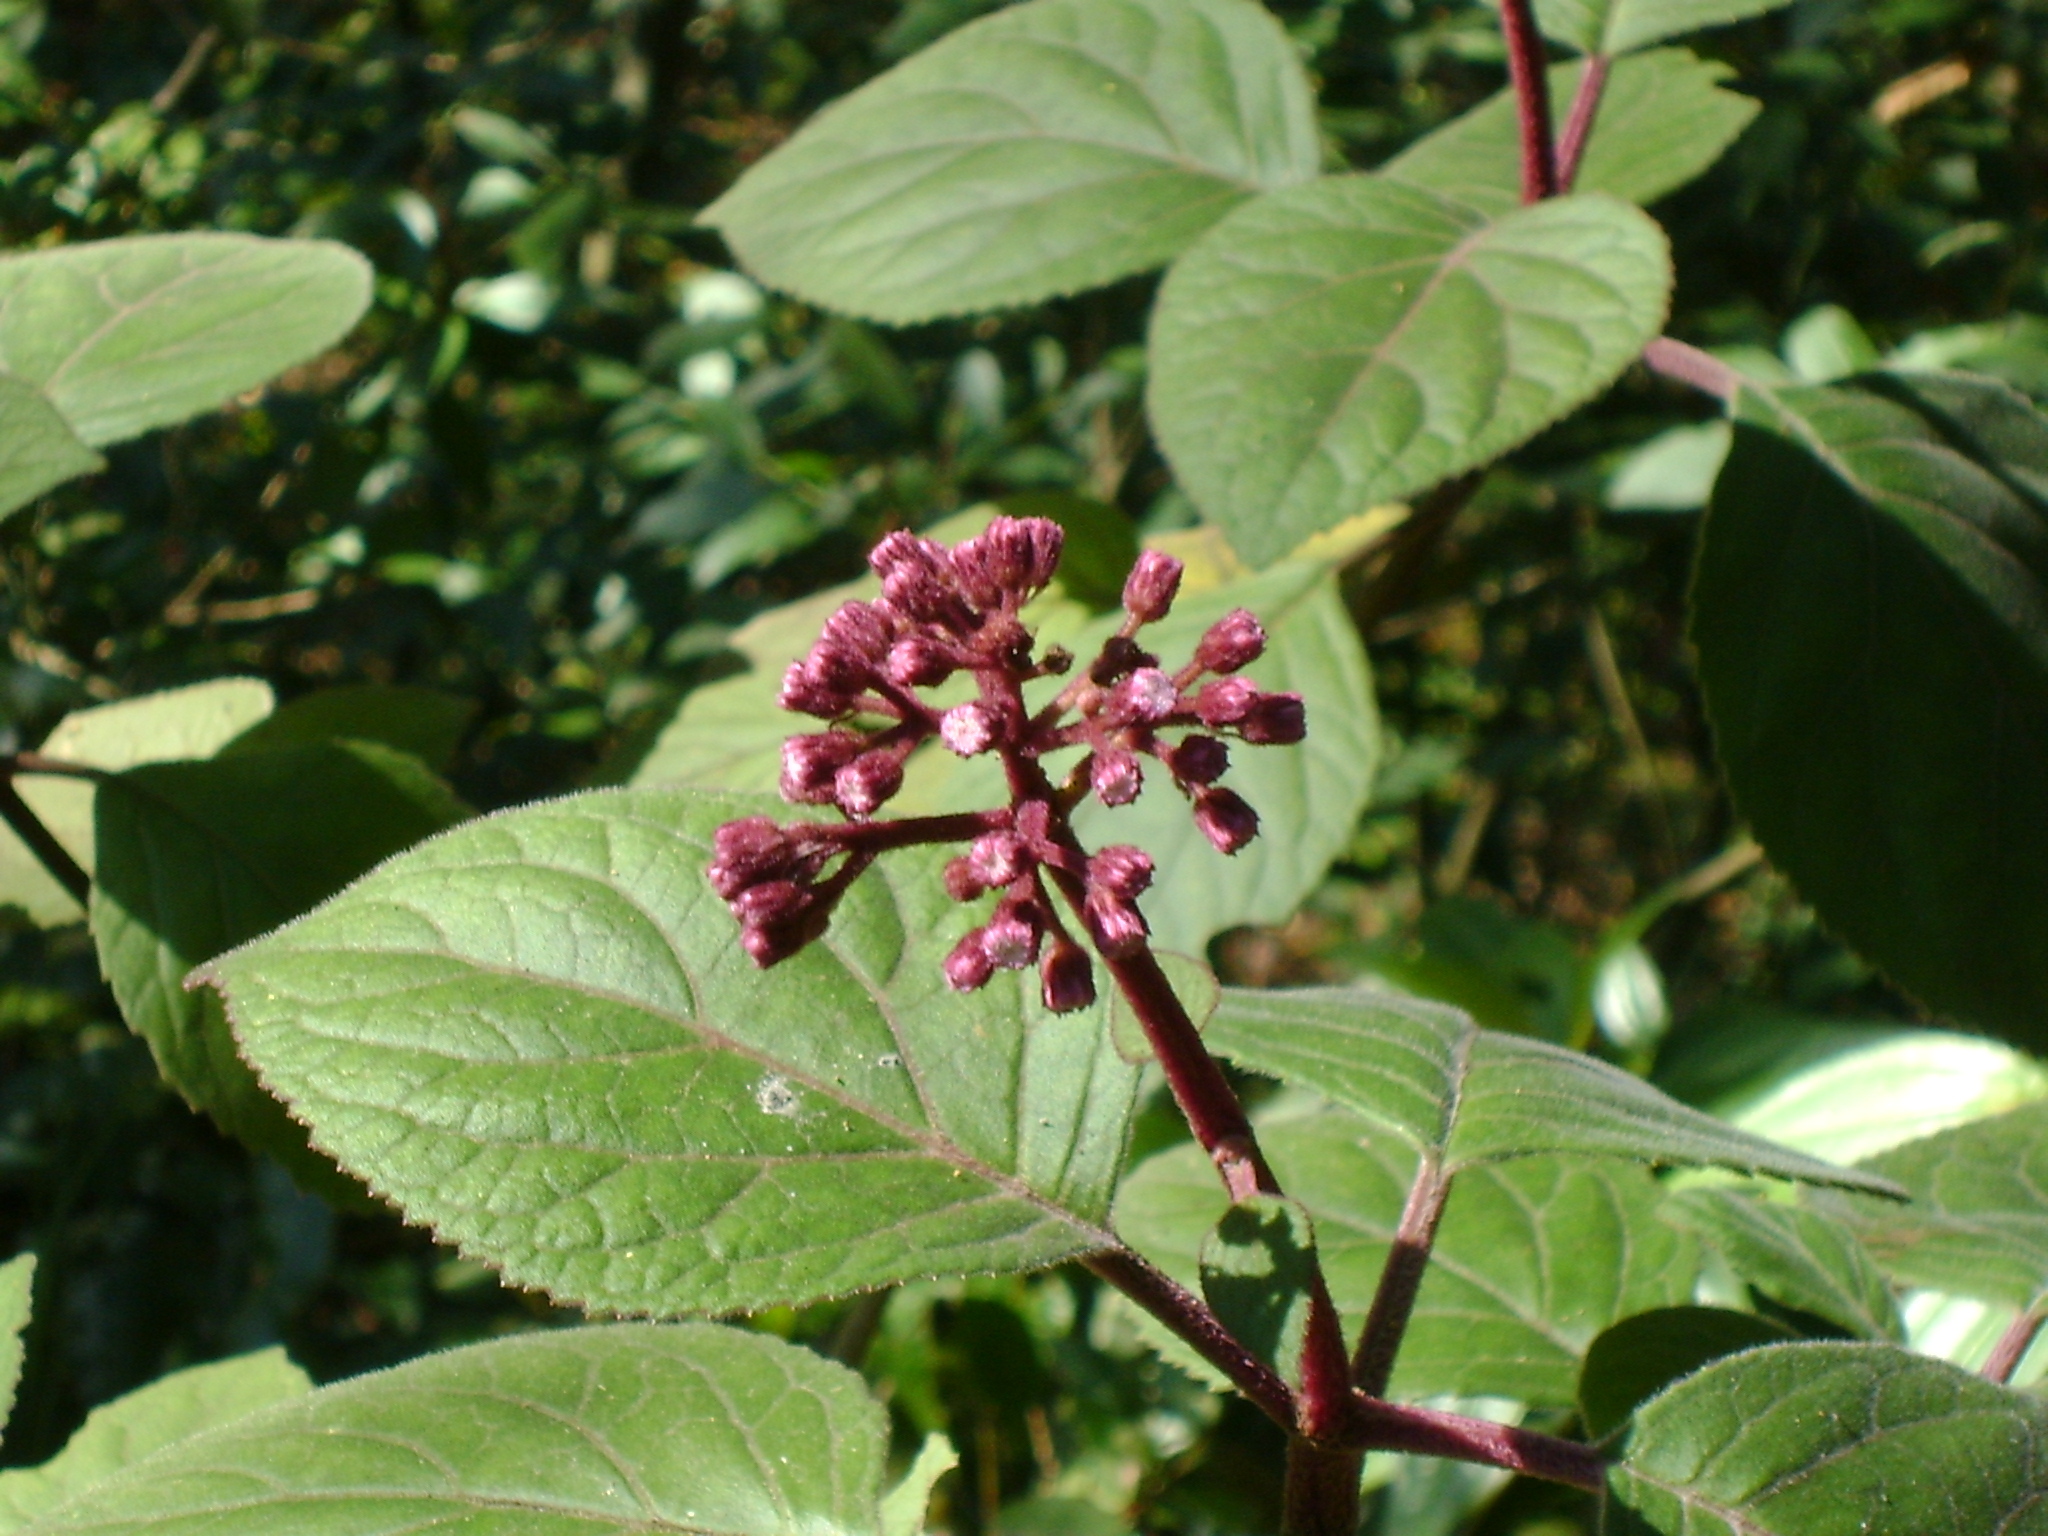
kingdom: Plantae
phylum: Tracheophyta
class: Magnoliopsida
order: Asterales
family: Asteraceae
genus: Bartlettina
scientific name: Bartlettina sordida
